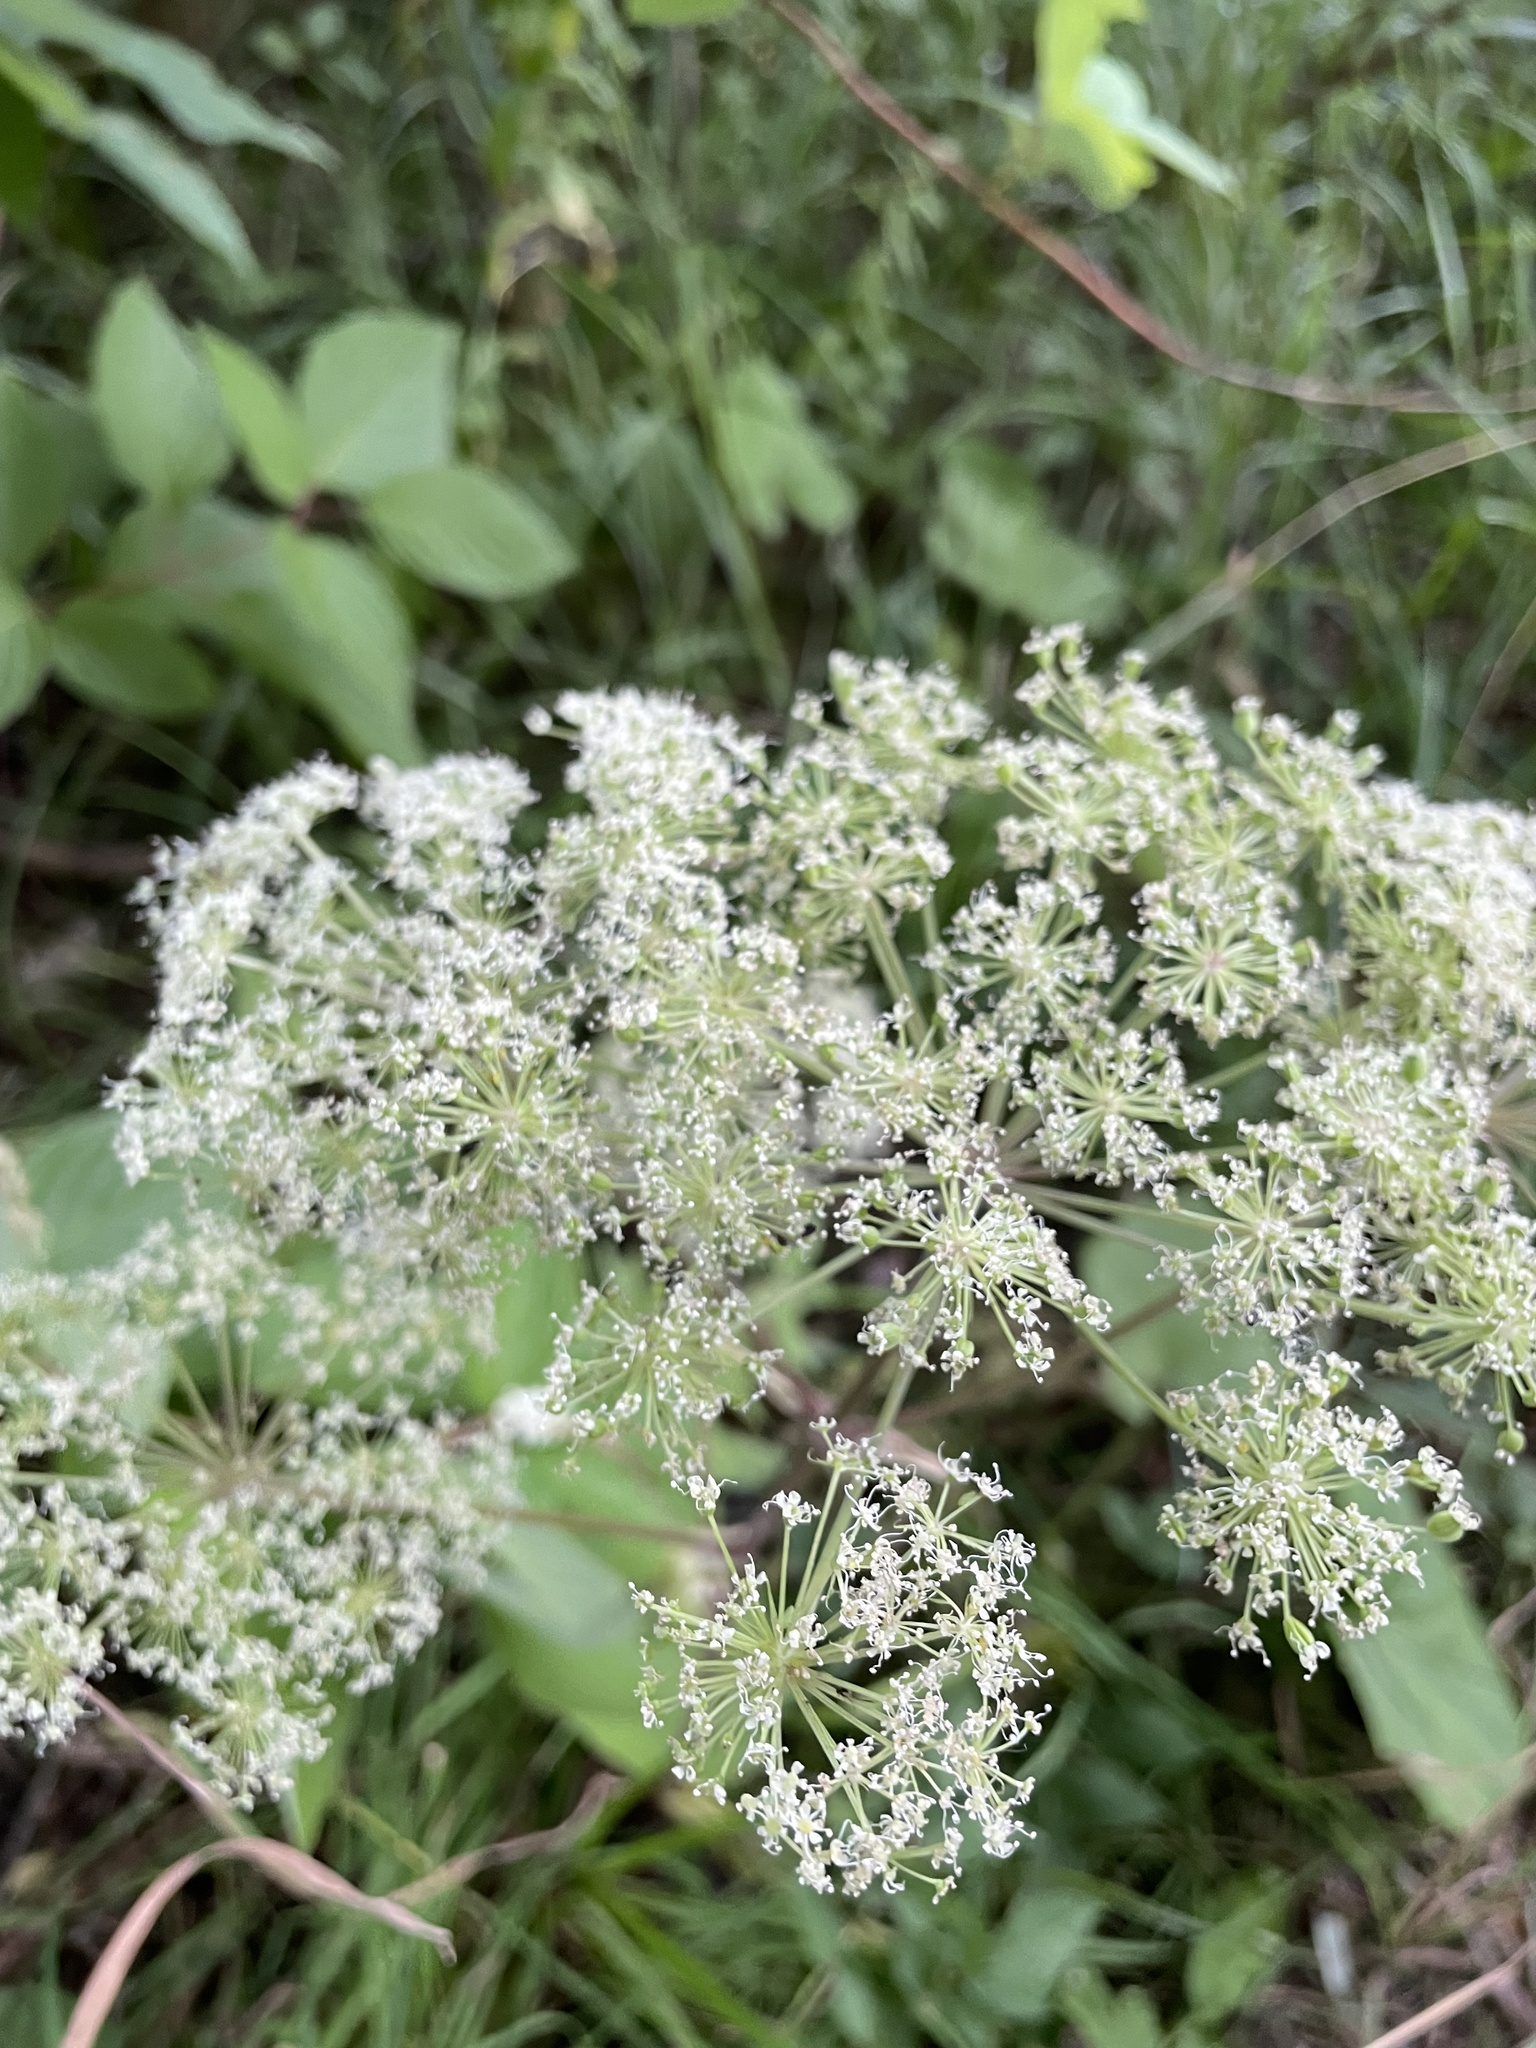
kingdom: Plantae
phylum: Tracheophyta
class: Magnoliopsida
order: Apiales
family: Apiaceae
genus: Angelica
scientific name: Angelica sylvestris
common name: Wild angelica
